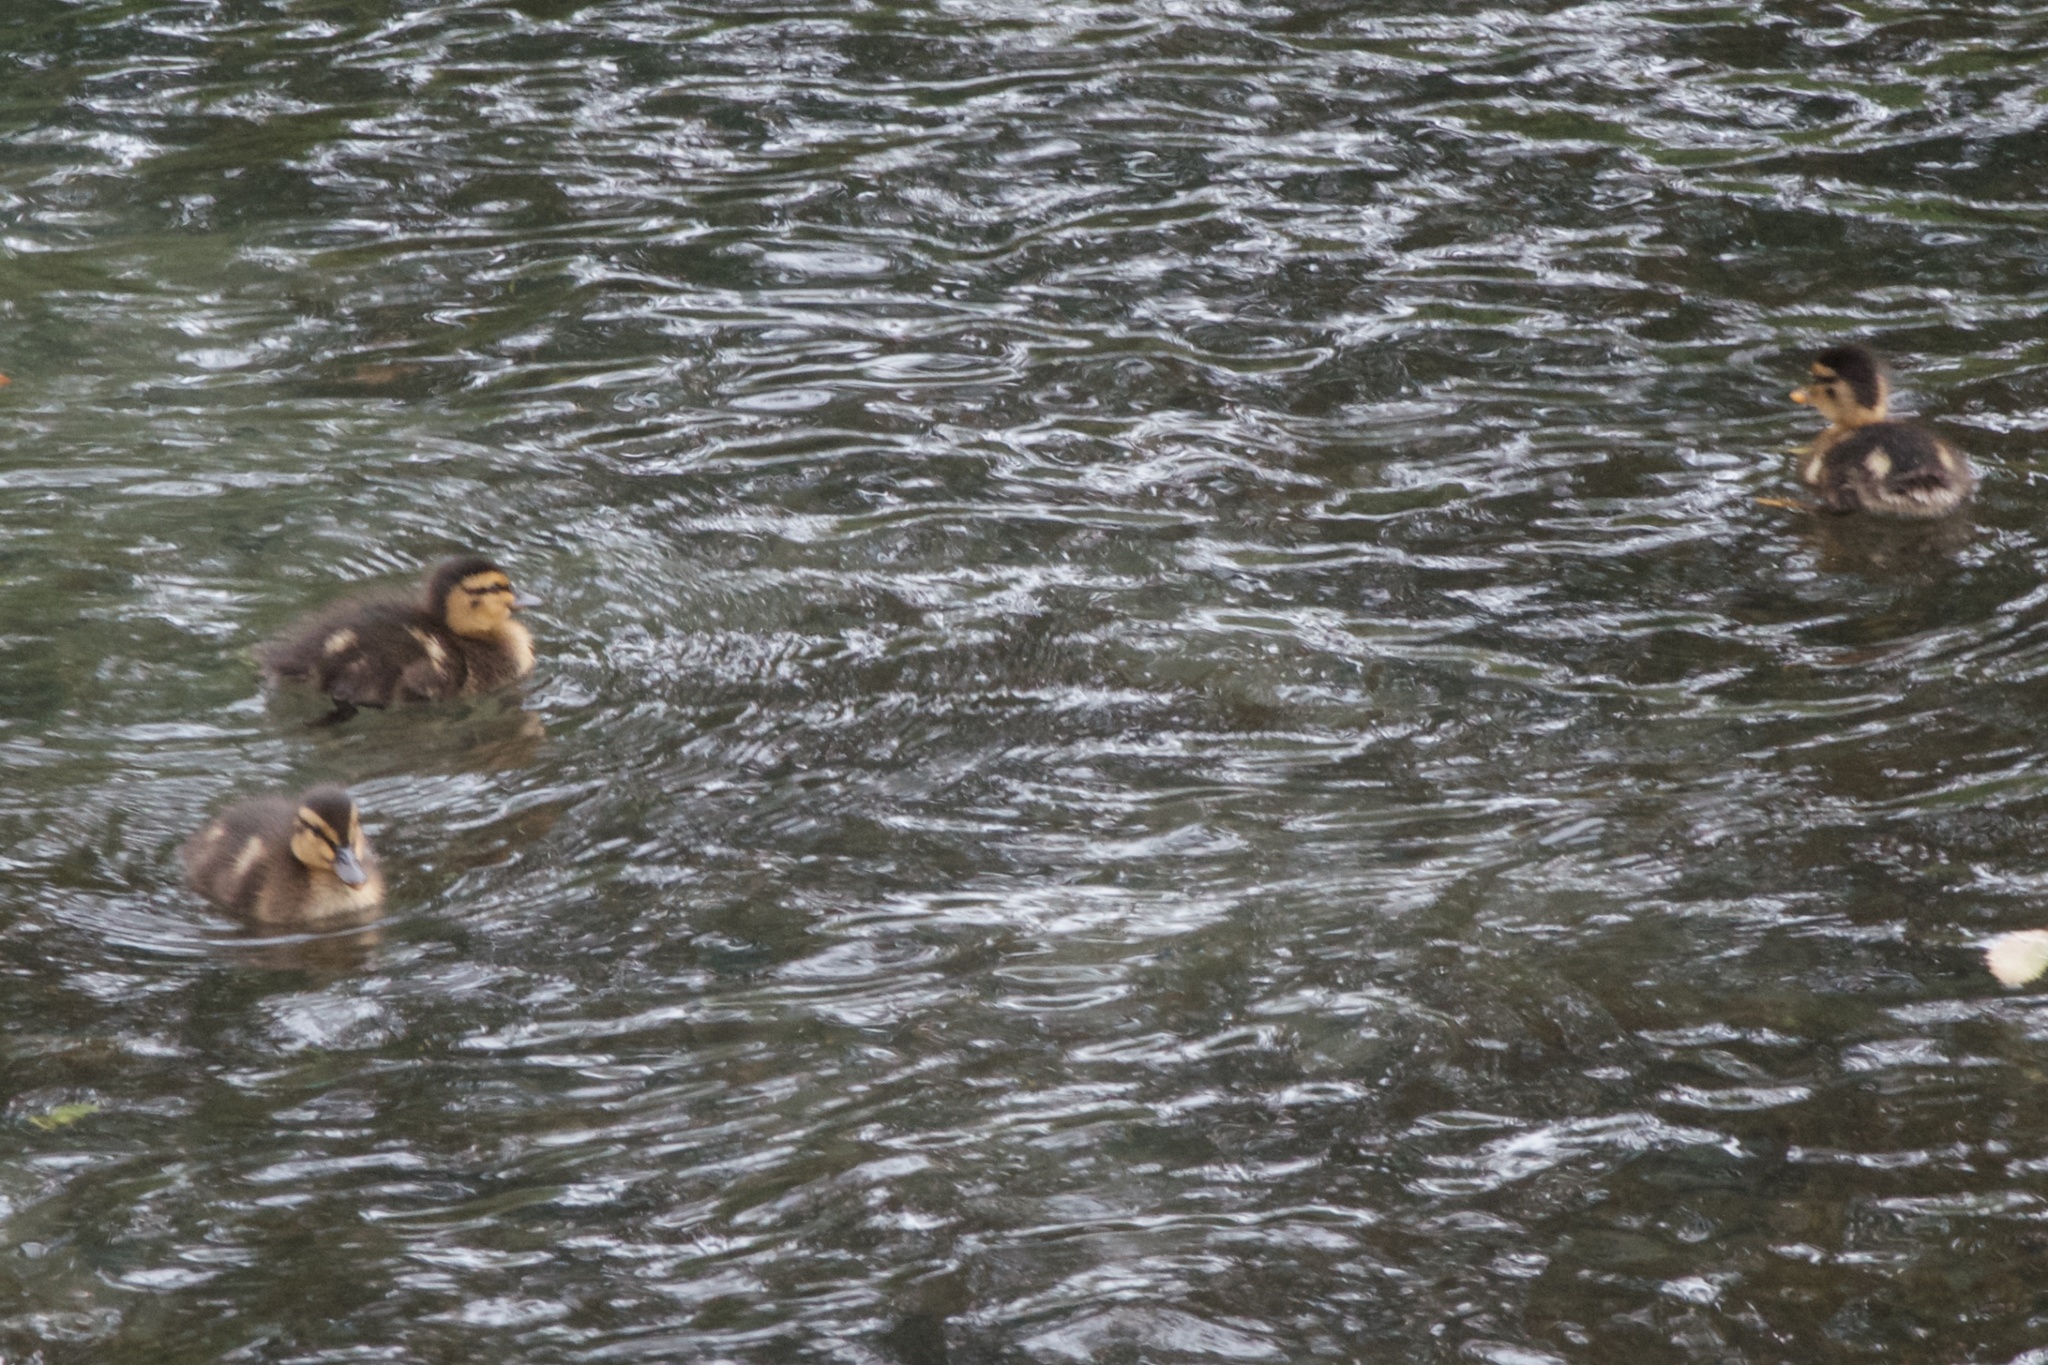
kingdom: Animalia
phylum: Chordata
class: Aves
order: Anseriformes
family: Anatidae
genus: Anas
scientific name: Anas platyrhynchos
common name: Mallard
